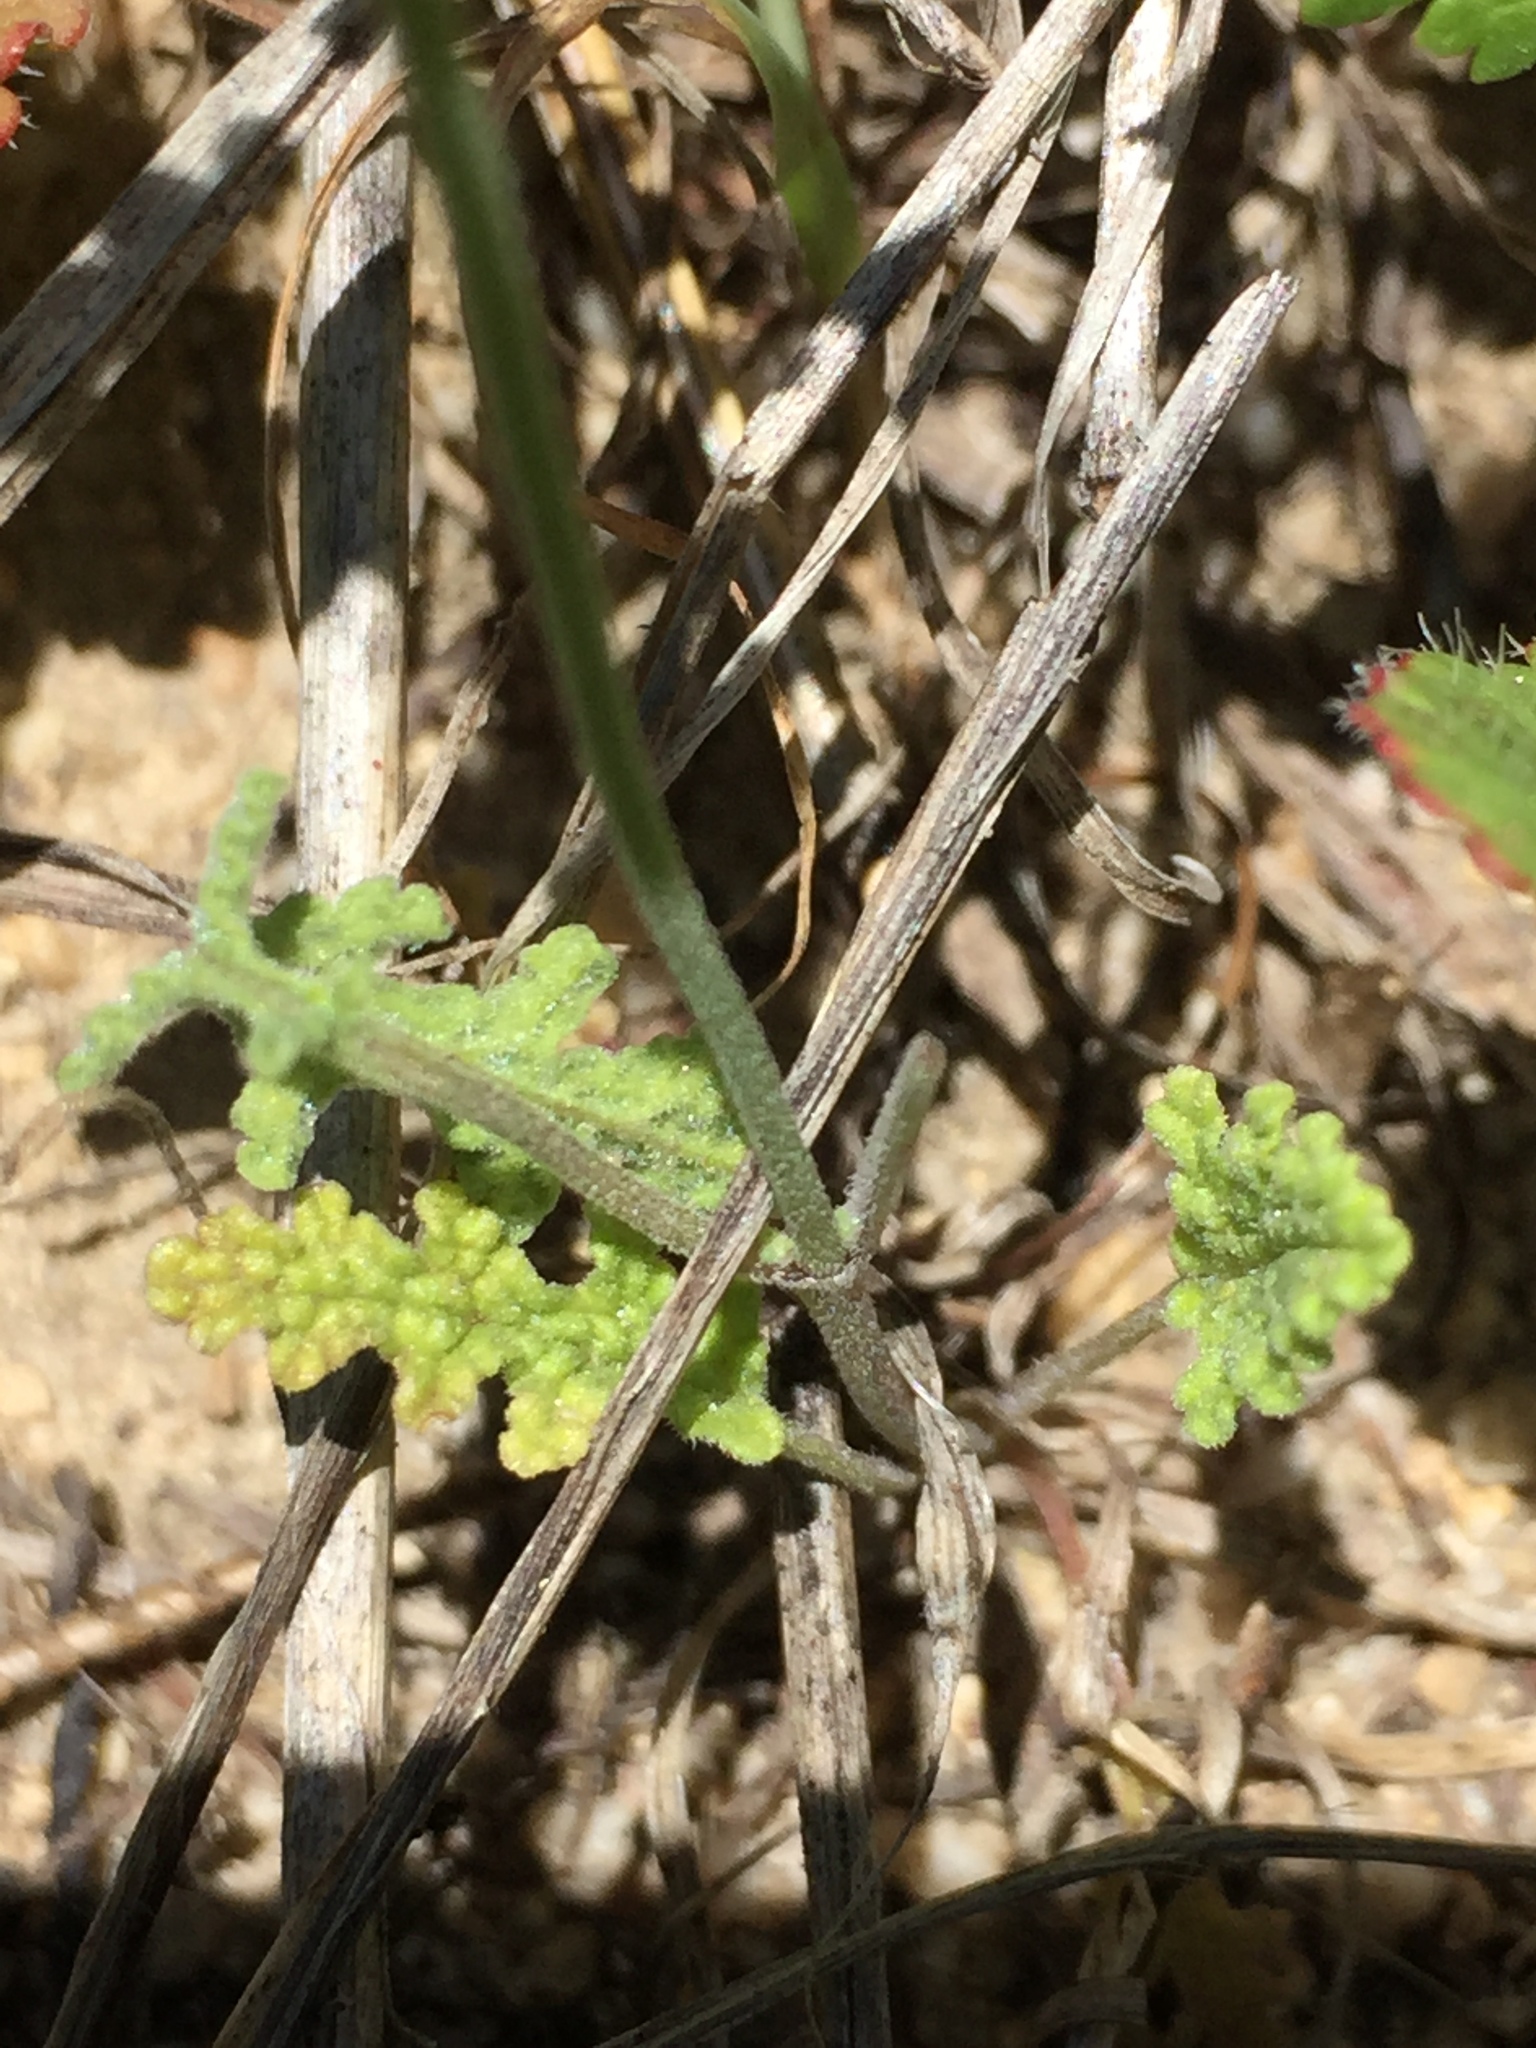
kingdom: Plantae
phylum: Tracheophyta
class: Magnoliopsida
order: Lamiales
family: Lamiaceae
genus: Salvia
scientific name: Salvia columbariae
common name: Chia
